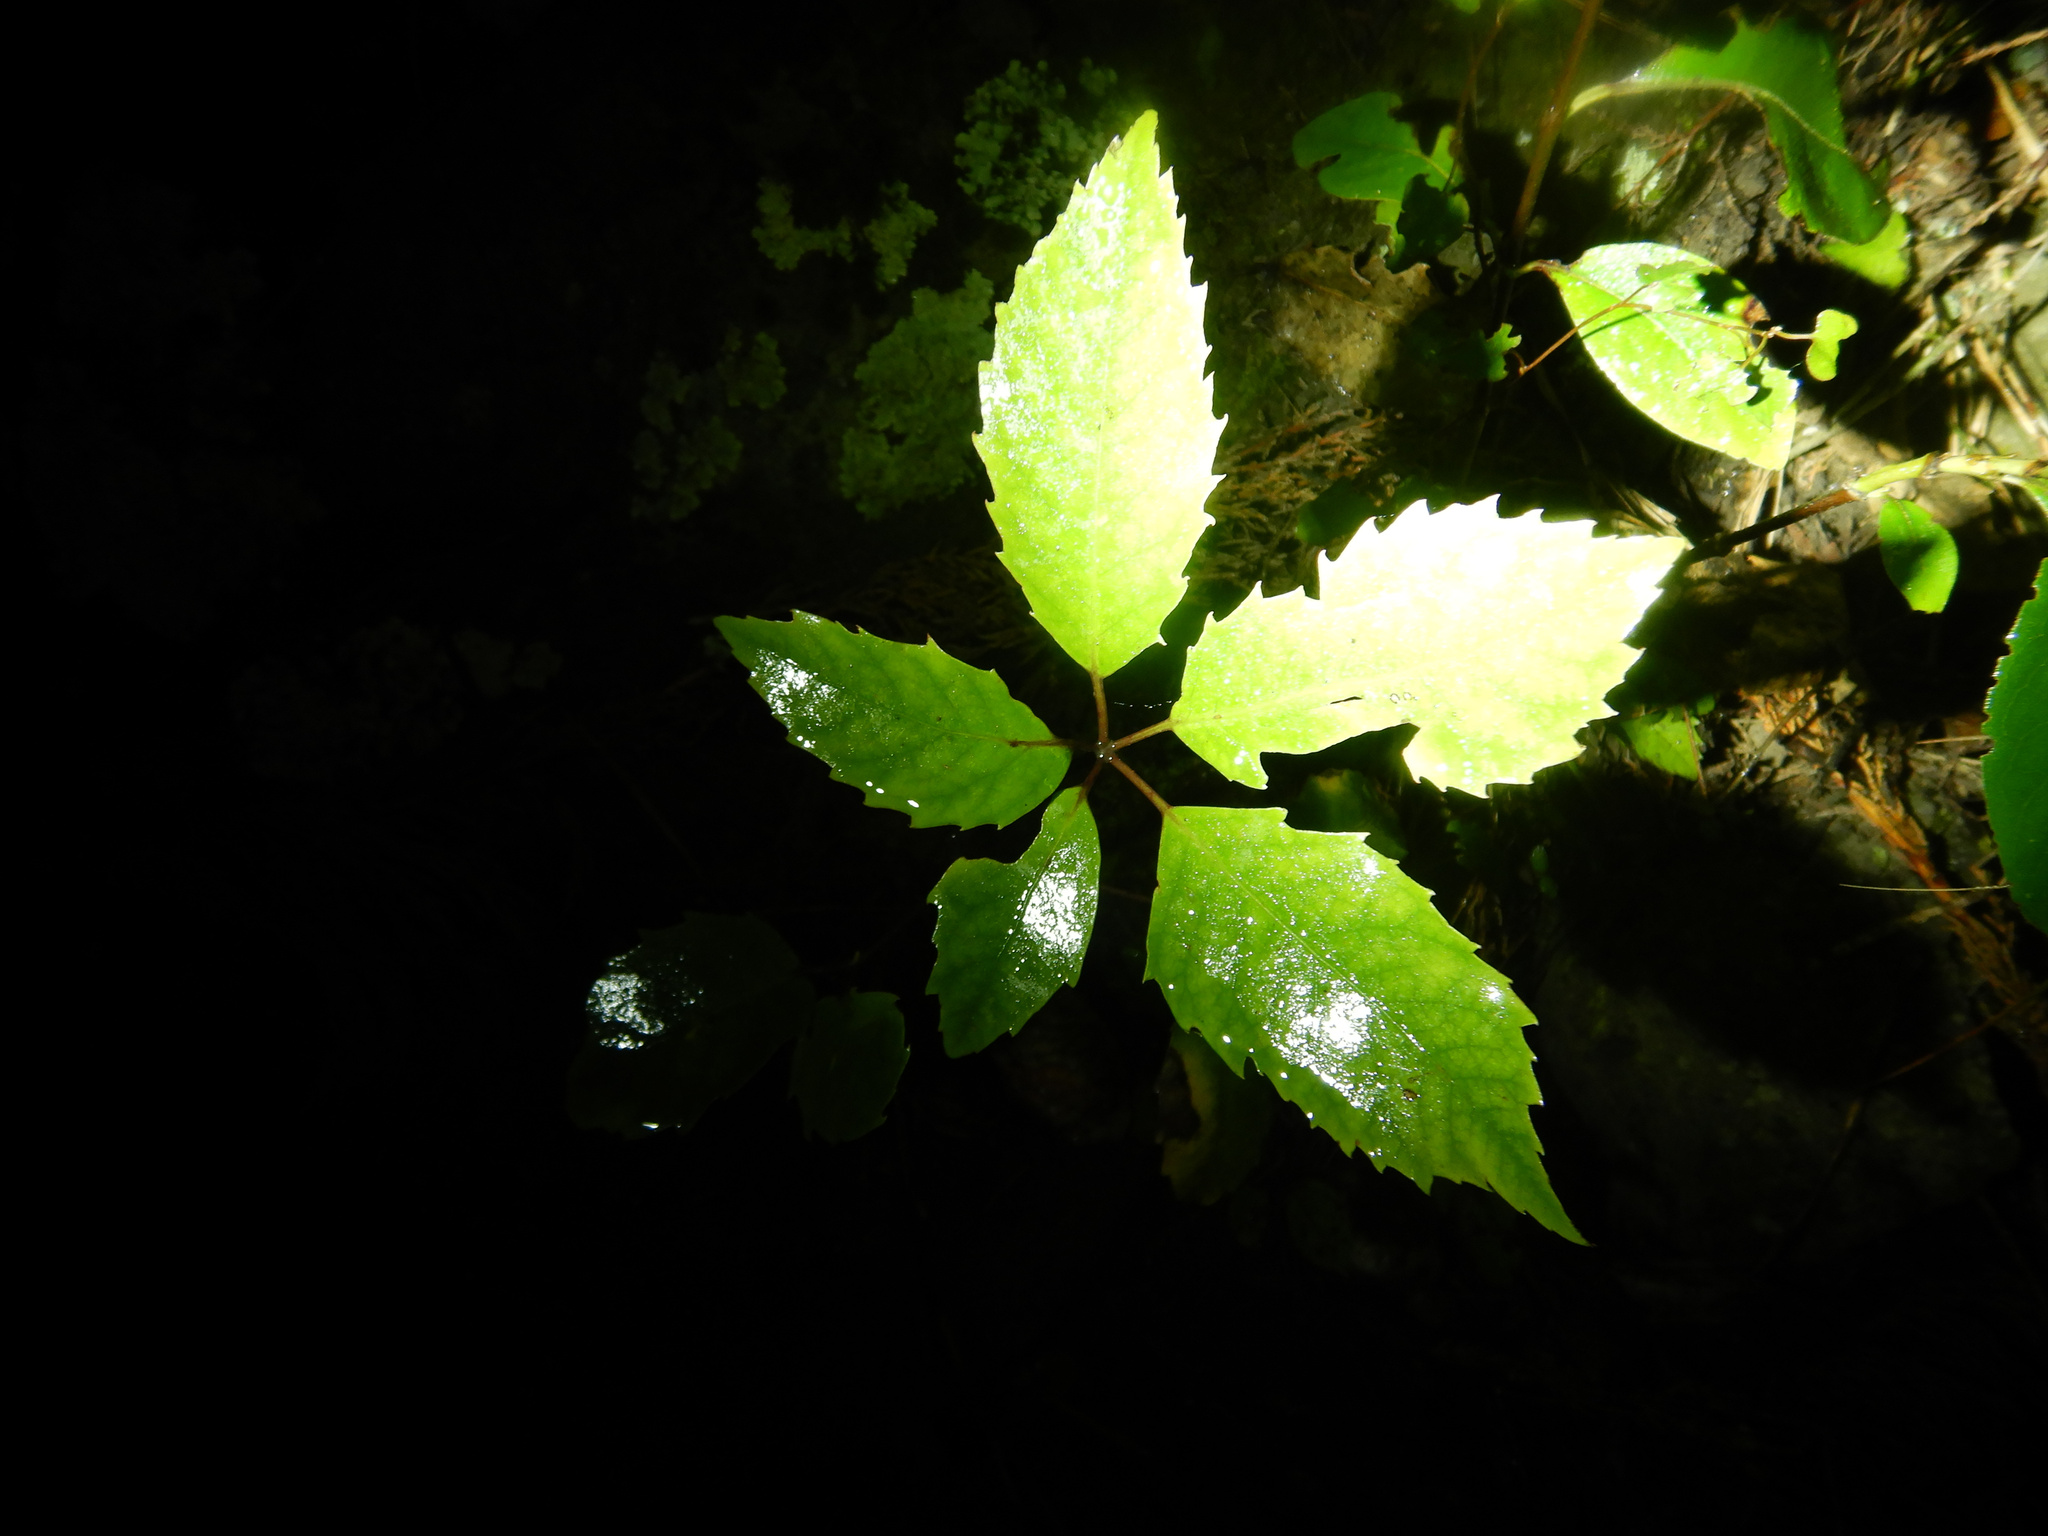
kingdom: Plantae
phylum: Tracheophyta
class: Magnoliopsida
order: Apiales
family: Araliaceae
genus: Neopanax
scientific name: Neopanax arboreus
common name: Five-fingers
